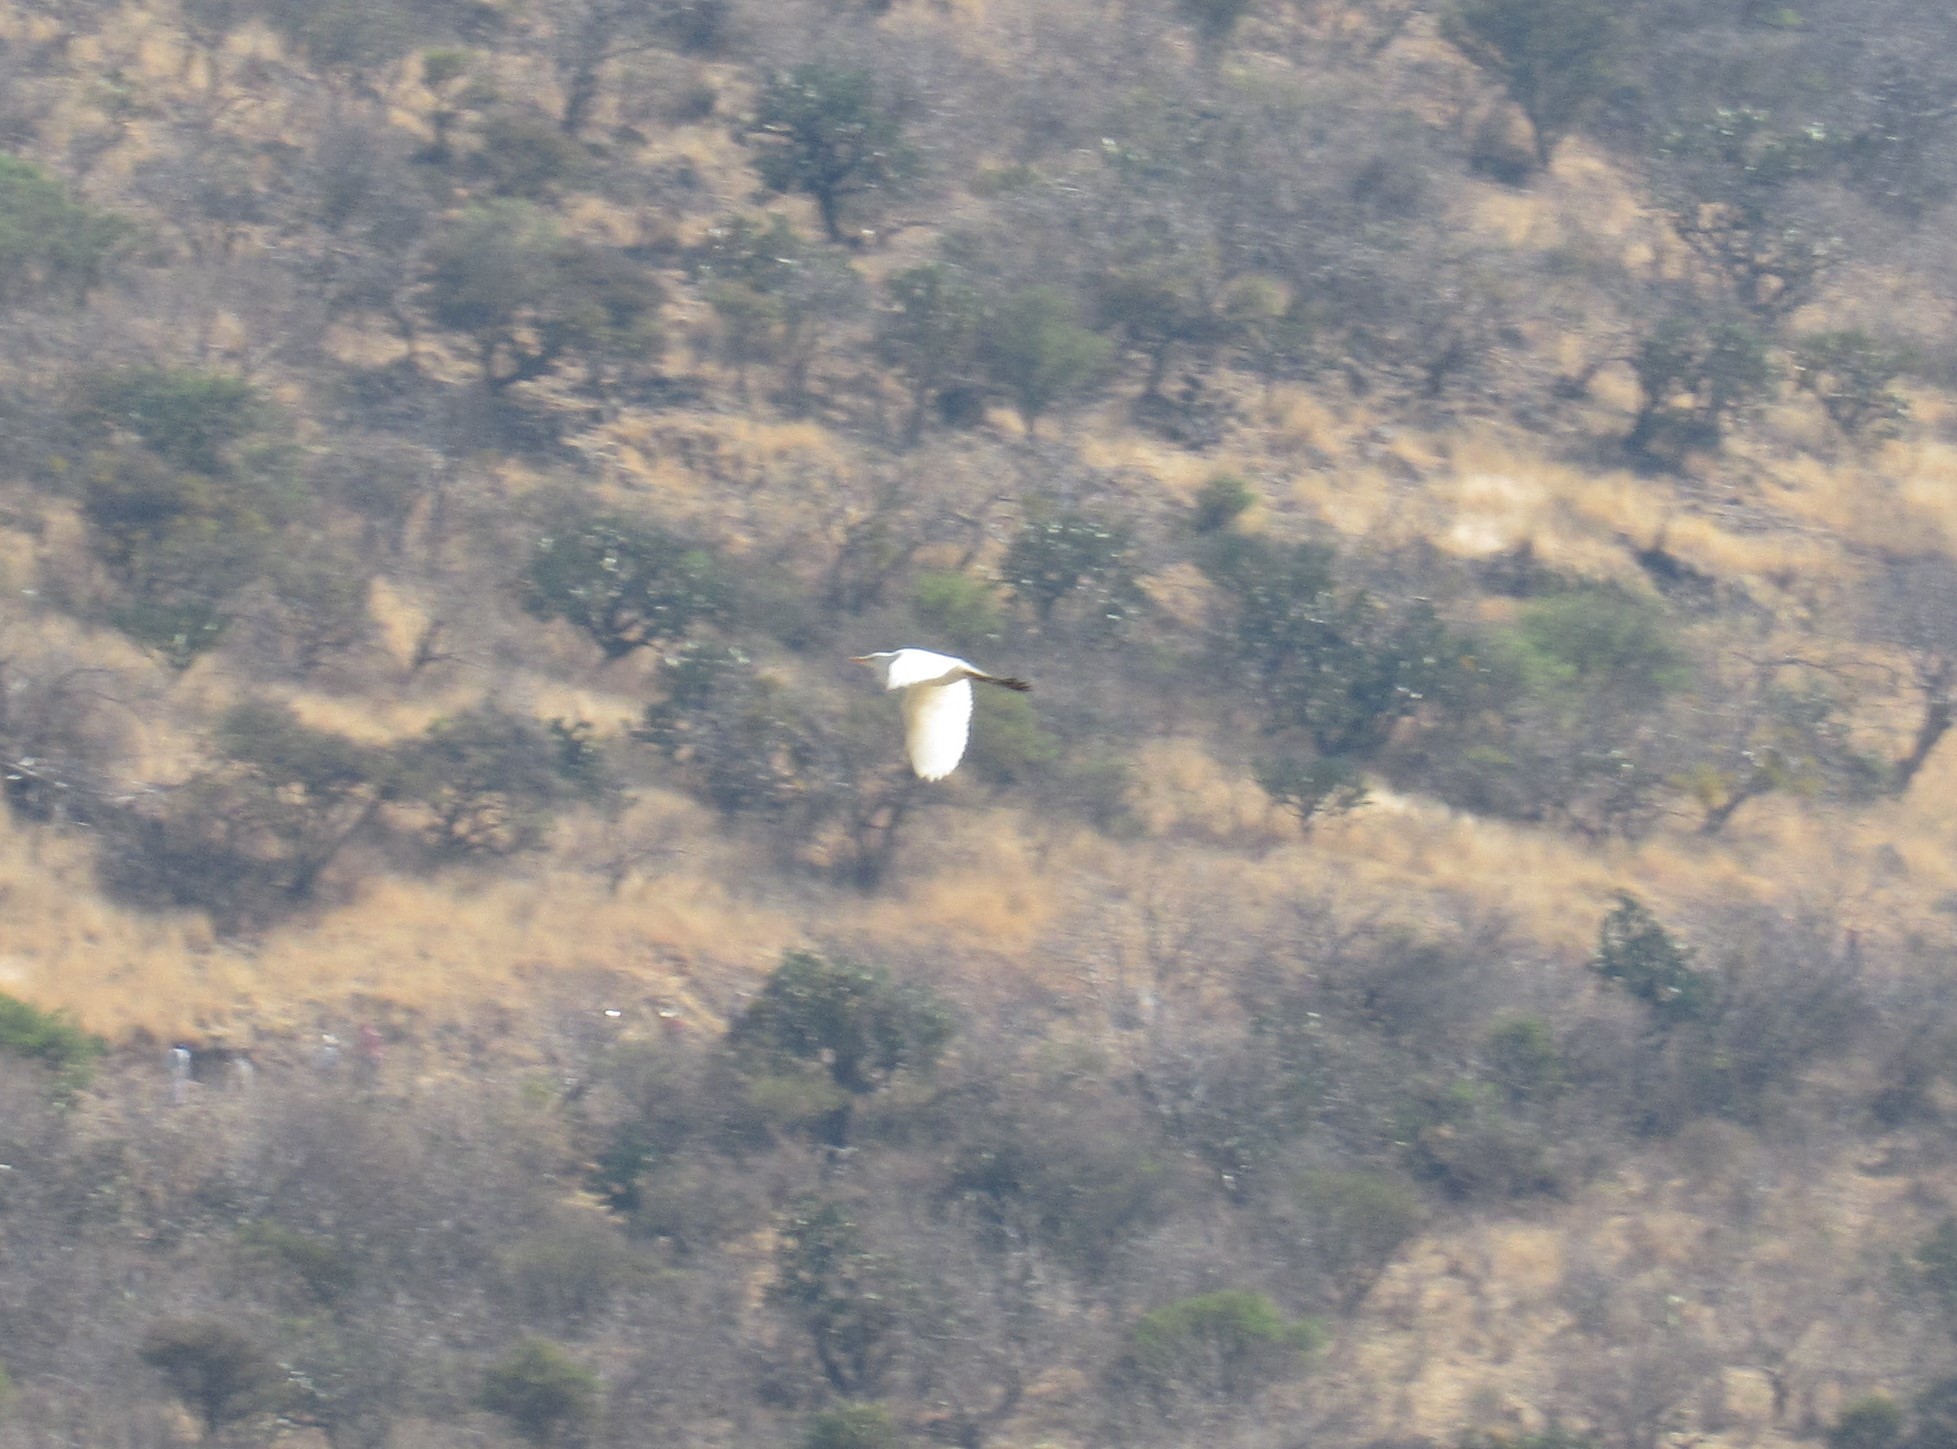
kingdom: Animalia
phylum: Chordata
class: Aves
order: Pelecaniformes
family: Ardeidae
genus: Bubulcus
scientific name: Bubulcus ibis
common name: Cattle egret
